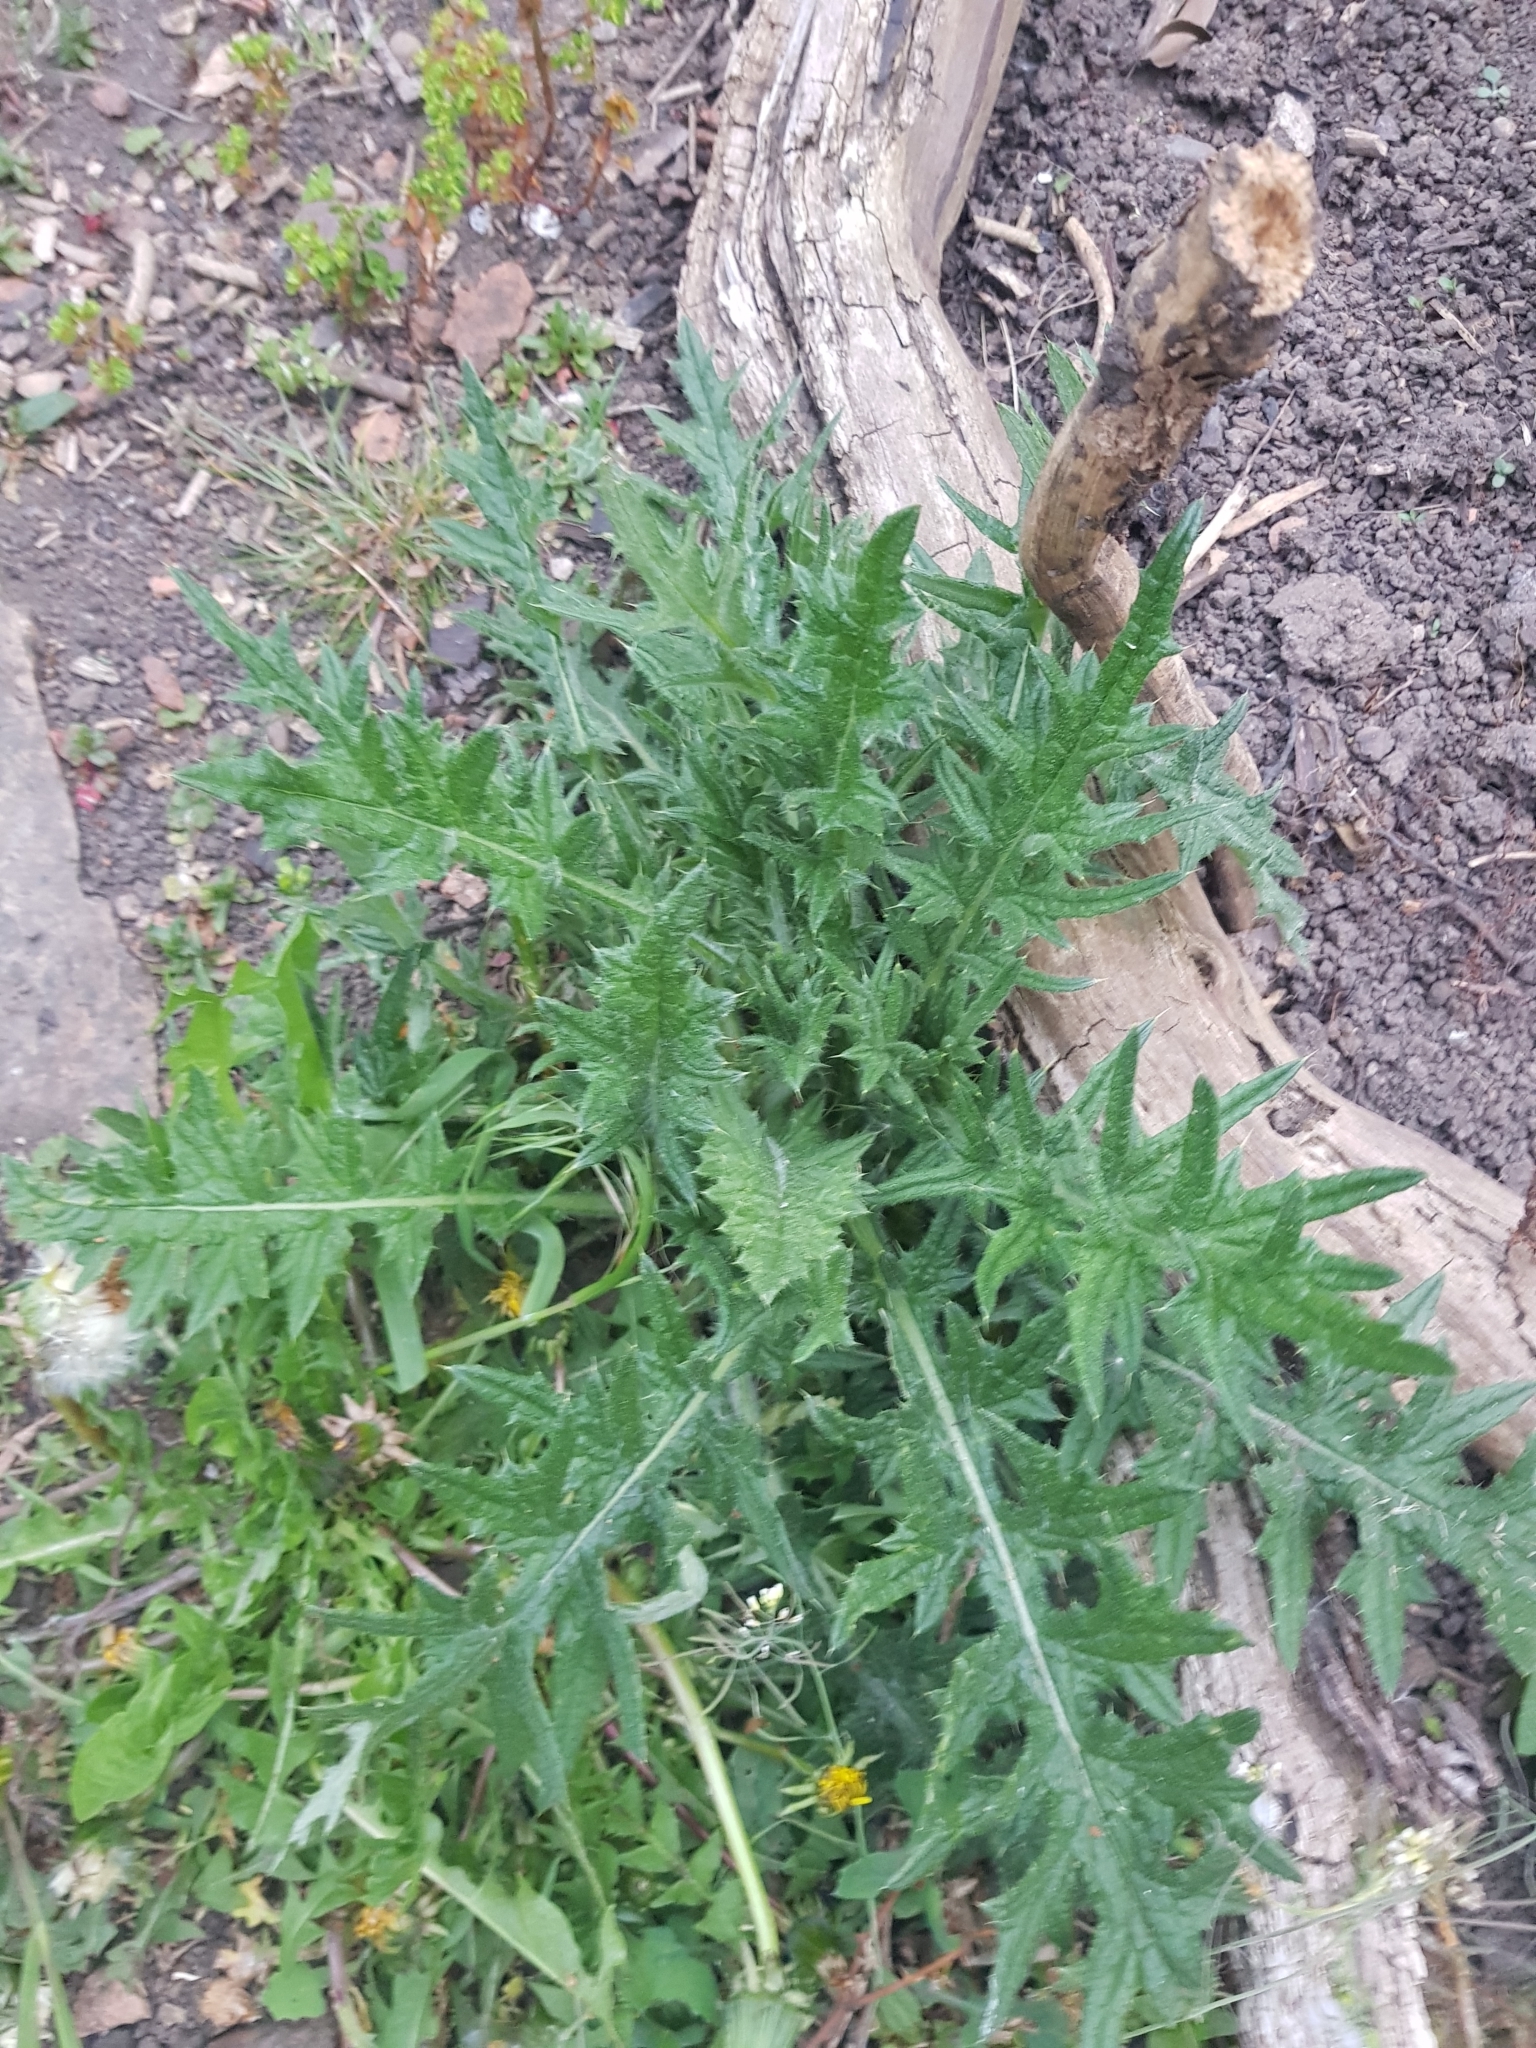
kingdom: Plantae
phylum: Tracheophyta
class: Magnoliopsida
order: Asterales
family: Asteraceae
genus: Cirsium
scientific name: Cirsium vulgare
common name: Bull thistle
